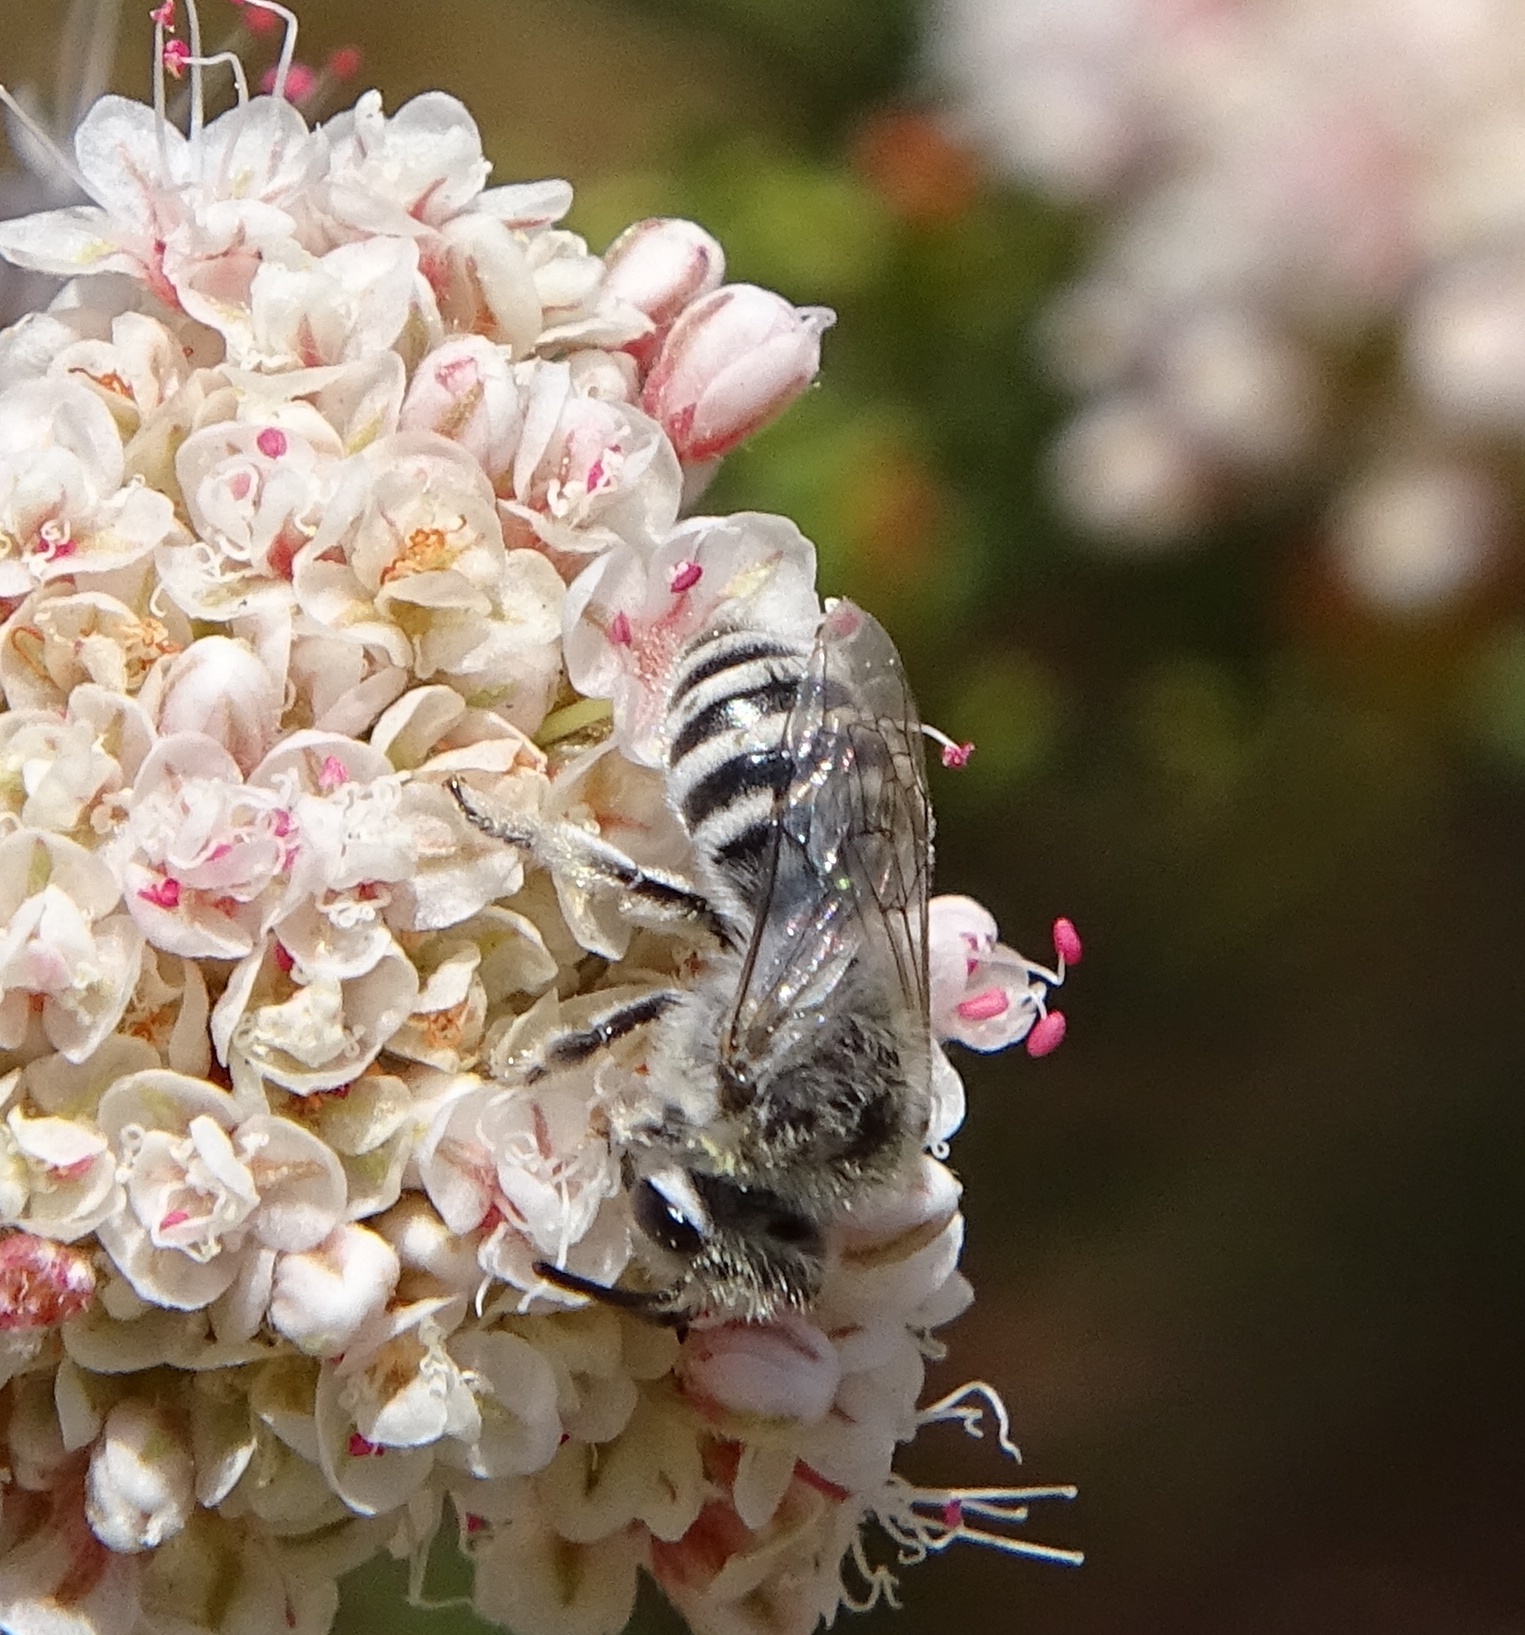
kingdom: Animalia
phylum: Arthropoda
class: Insecta
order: Hymenoptera
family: Colletidae
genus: Colletes
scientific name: Colletes
